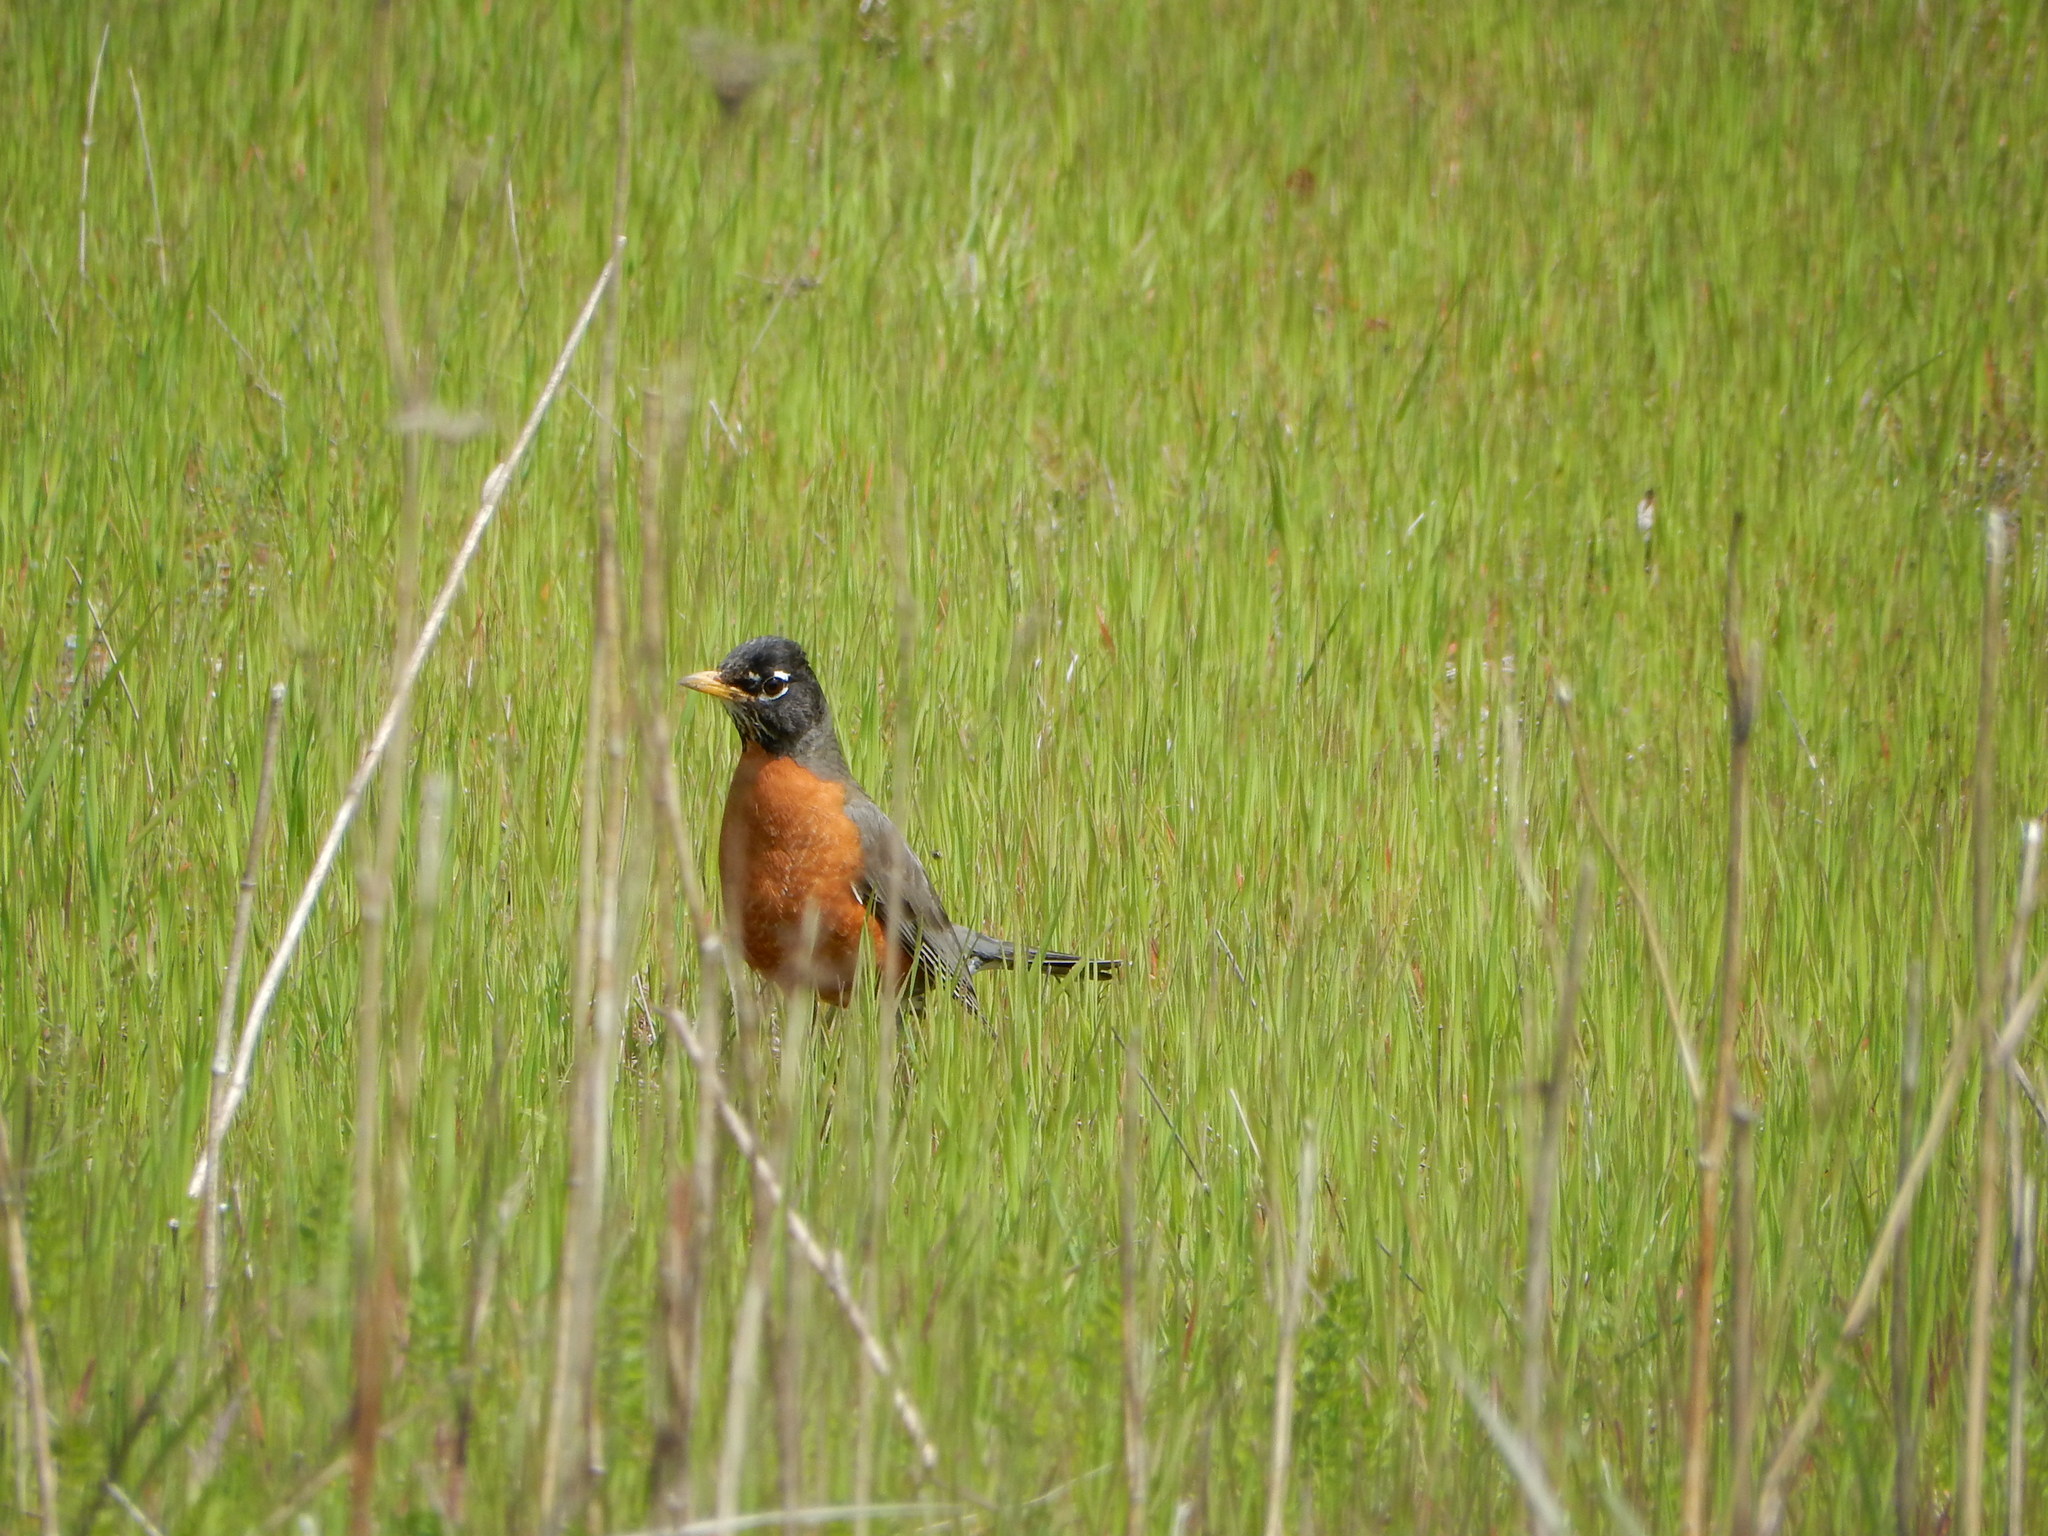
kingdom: Animalia
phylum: Chordata
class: Aves
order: Passeriformes
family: Turdidae
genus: Turdus
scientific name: Turdus migratorius
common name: American robin
